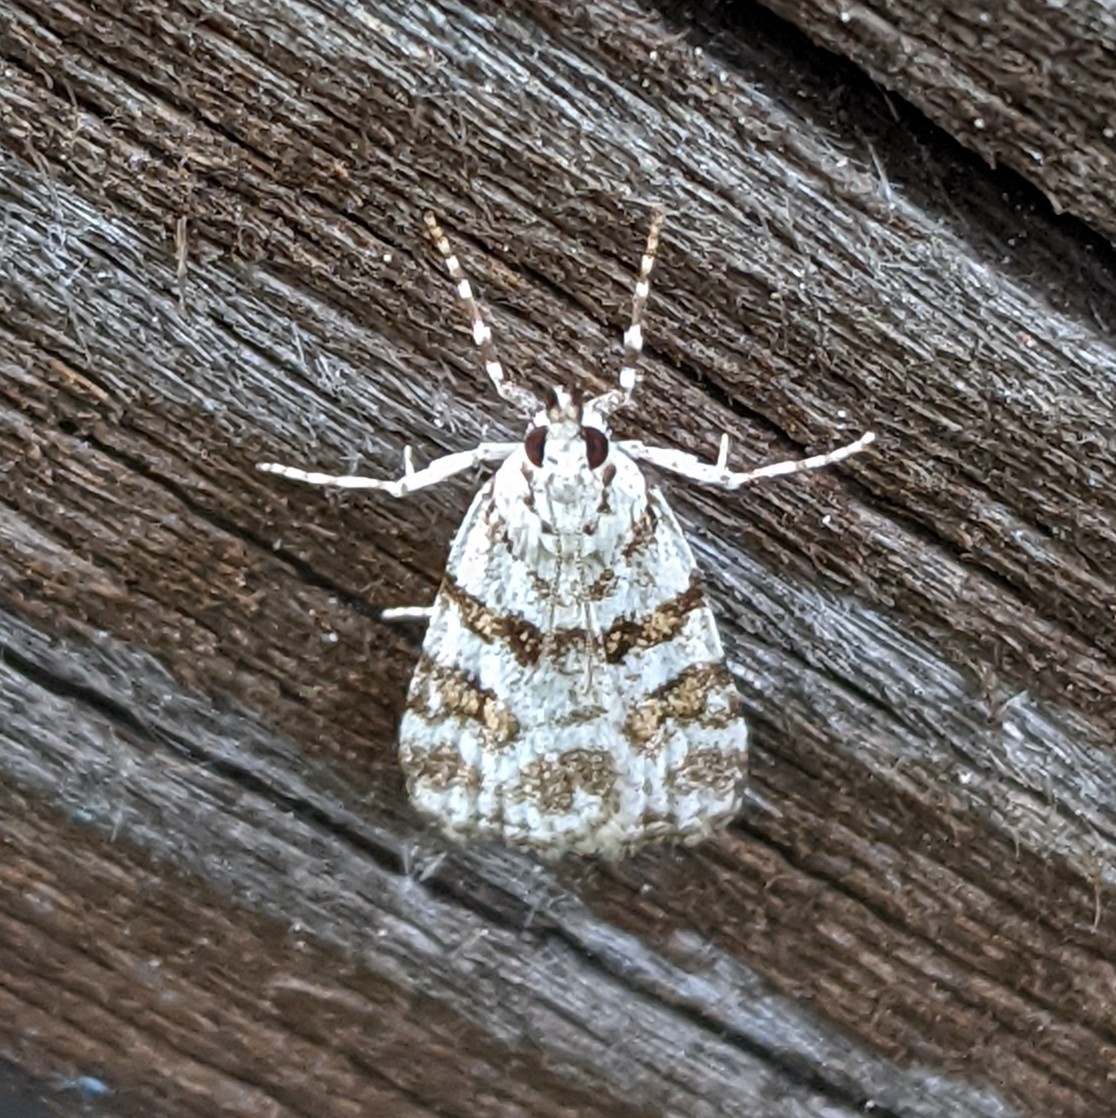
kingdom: Animalia
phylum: Arthropoda
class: Insecta
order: Lepidoptera
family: Crambidae
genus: Scoparia
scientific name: Scoparia pyralella
